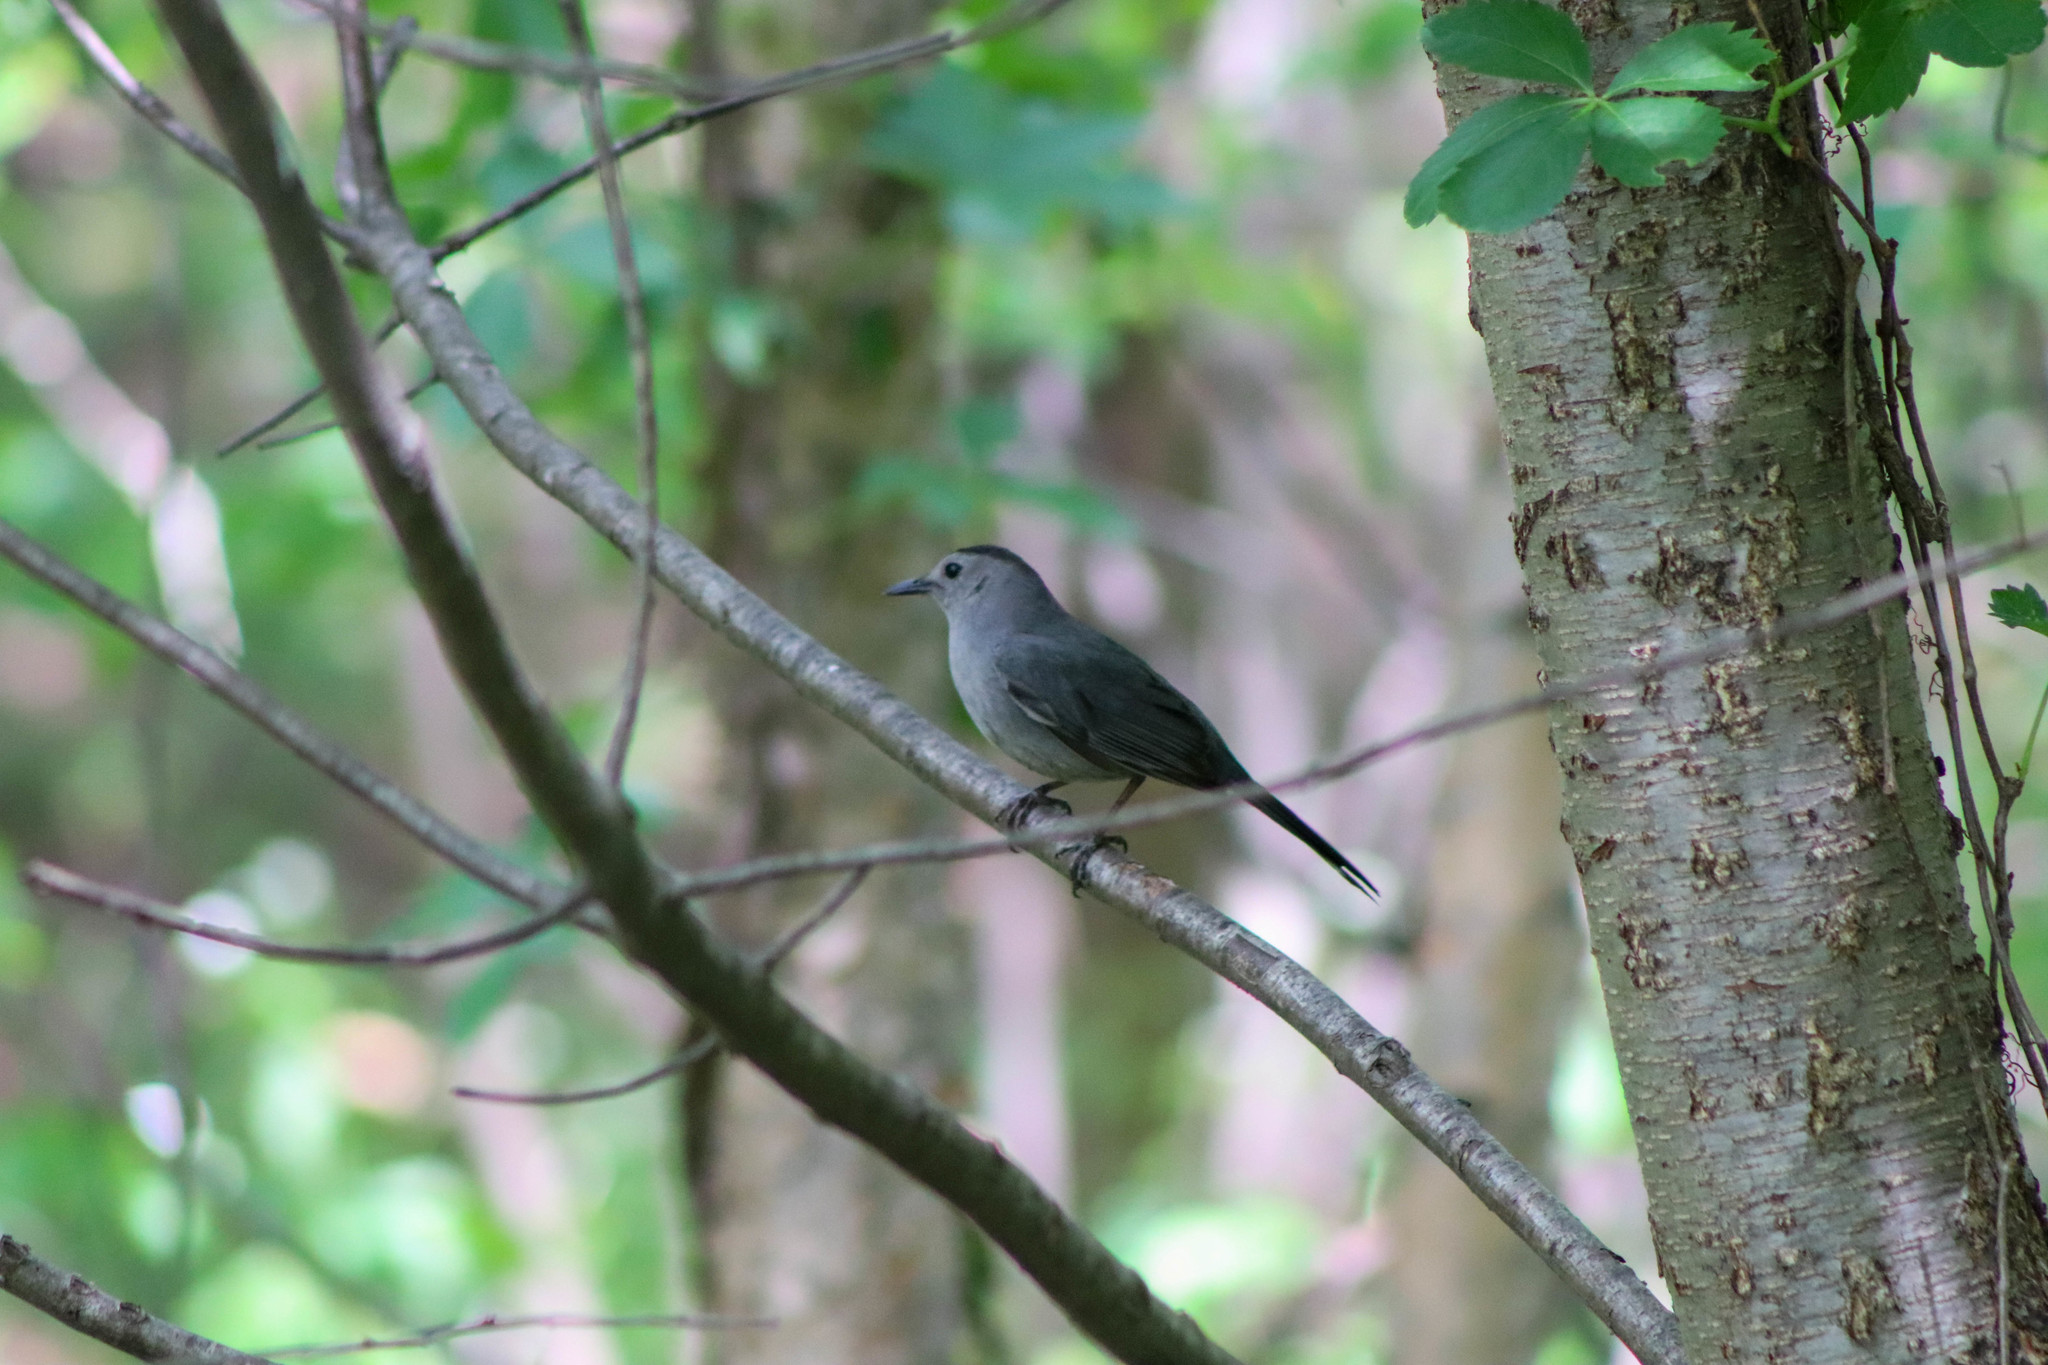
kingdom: Animalia
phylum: Chordata
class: Aves
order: Passeriformes
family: Mimidae
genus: Dumetella
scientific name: Dumetella carolinensis
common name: Gray catbird
